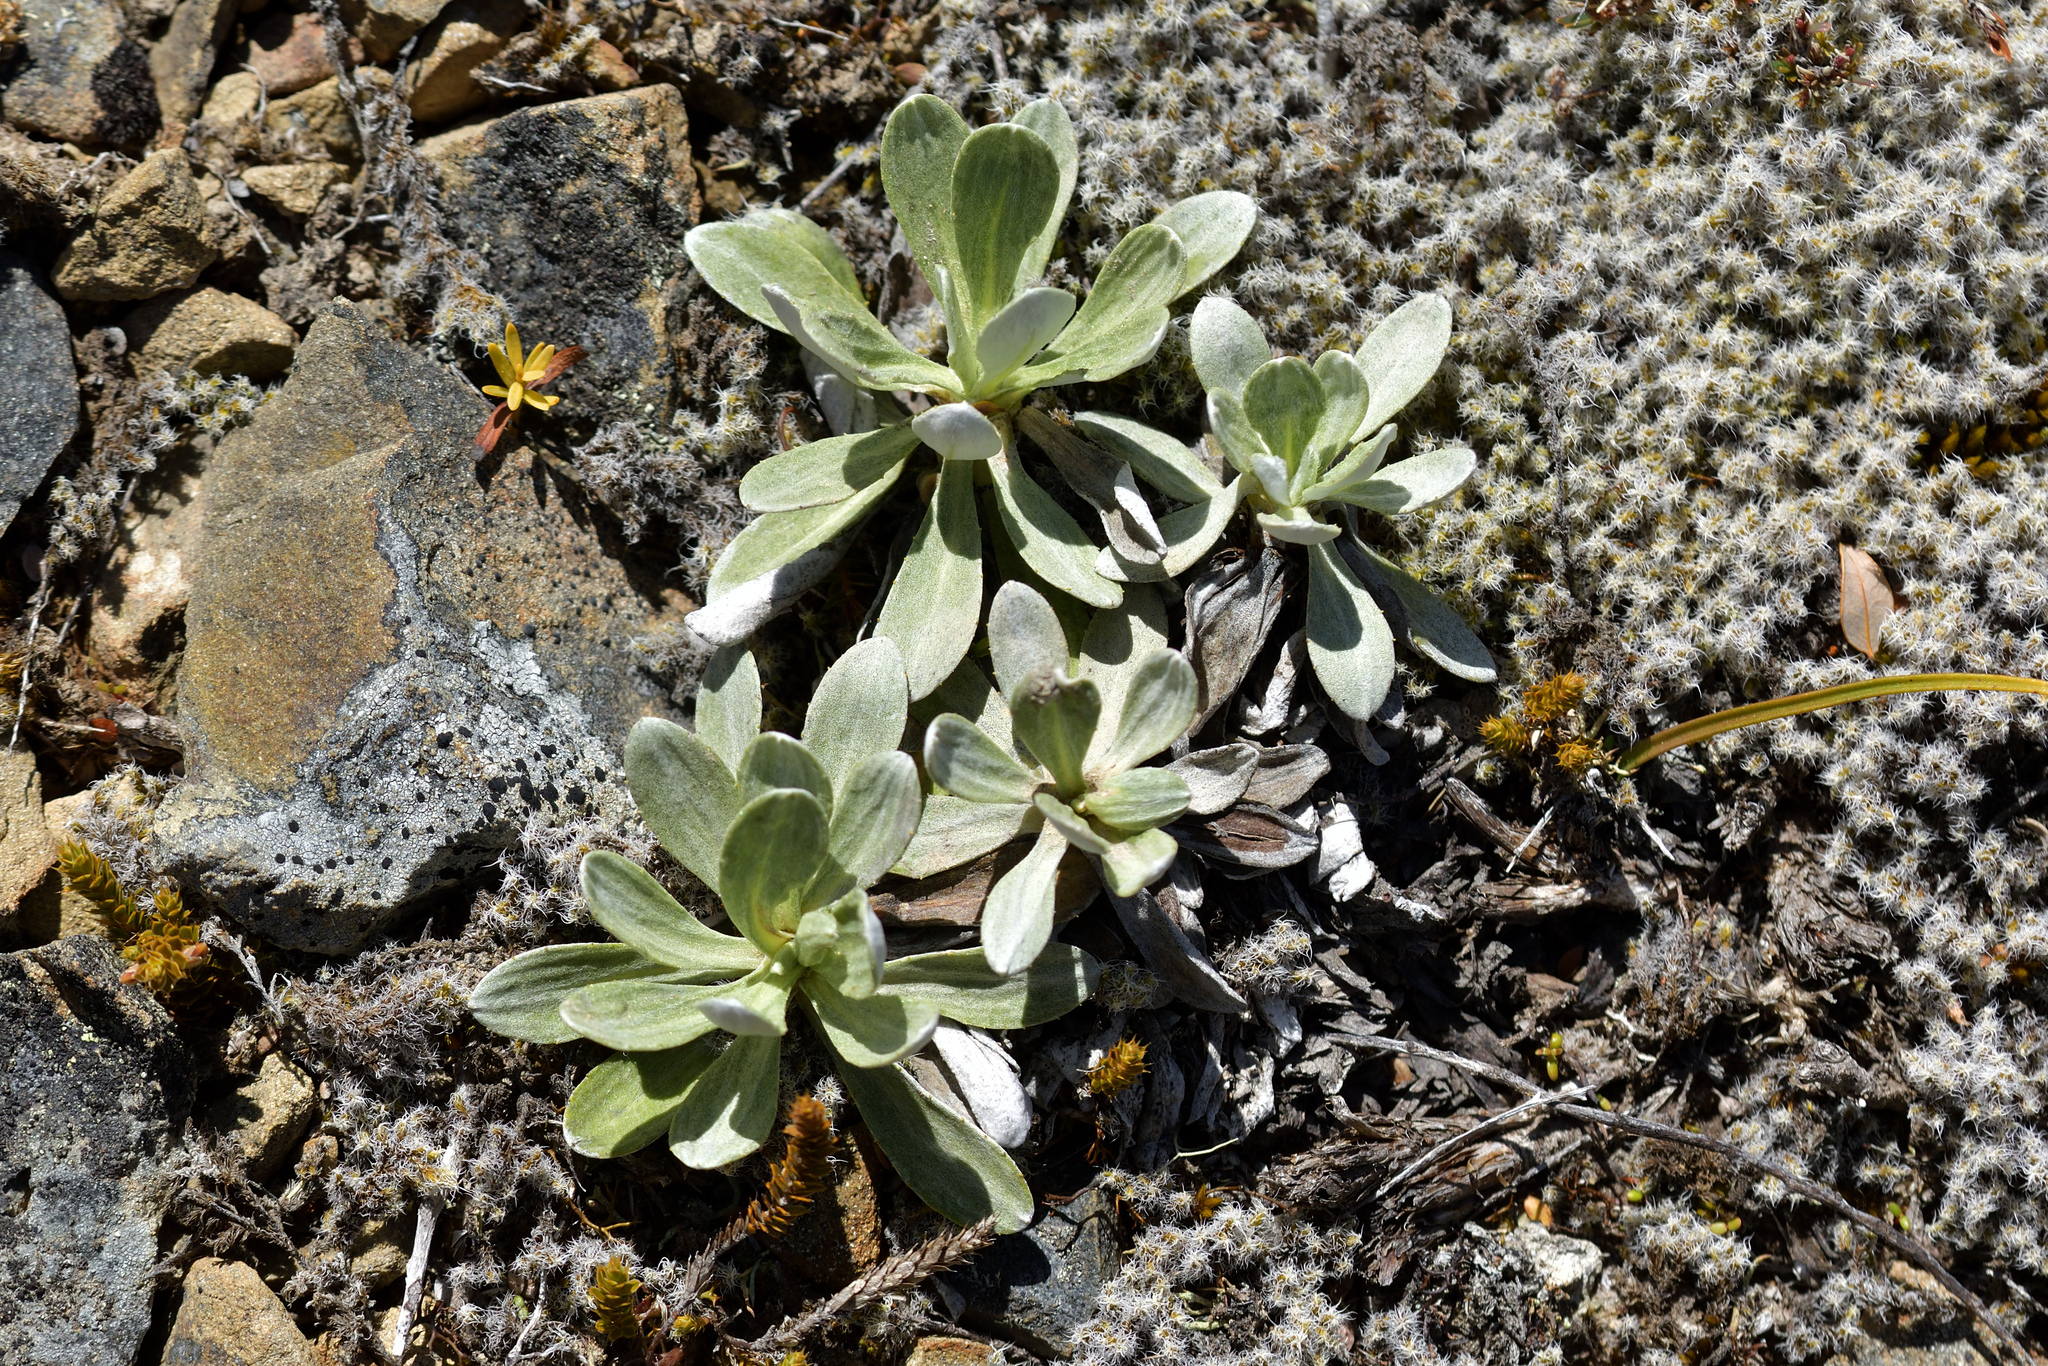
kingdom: Plantae
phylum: Tracheophyta
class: Magnoliopsida
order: Asterales
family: Asteraceae
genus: Celmisia
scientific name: Celmisia discolor
